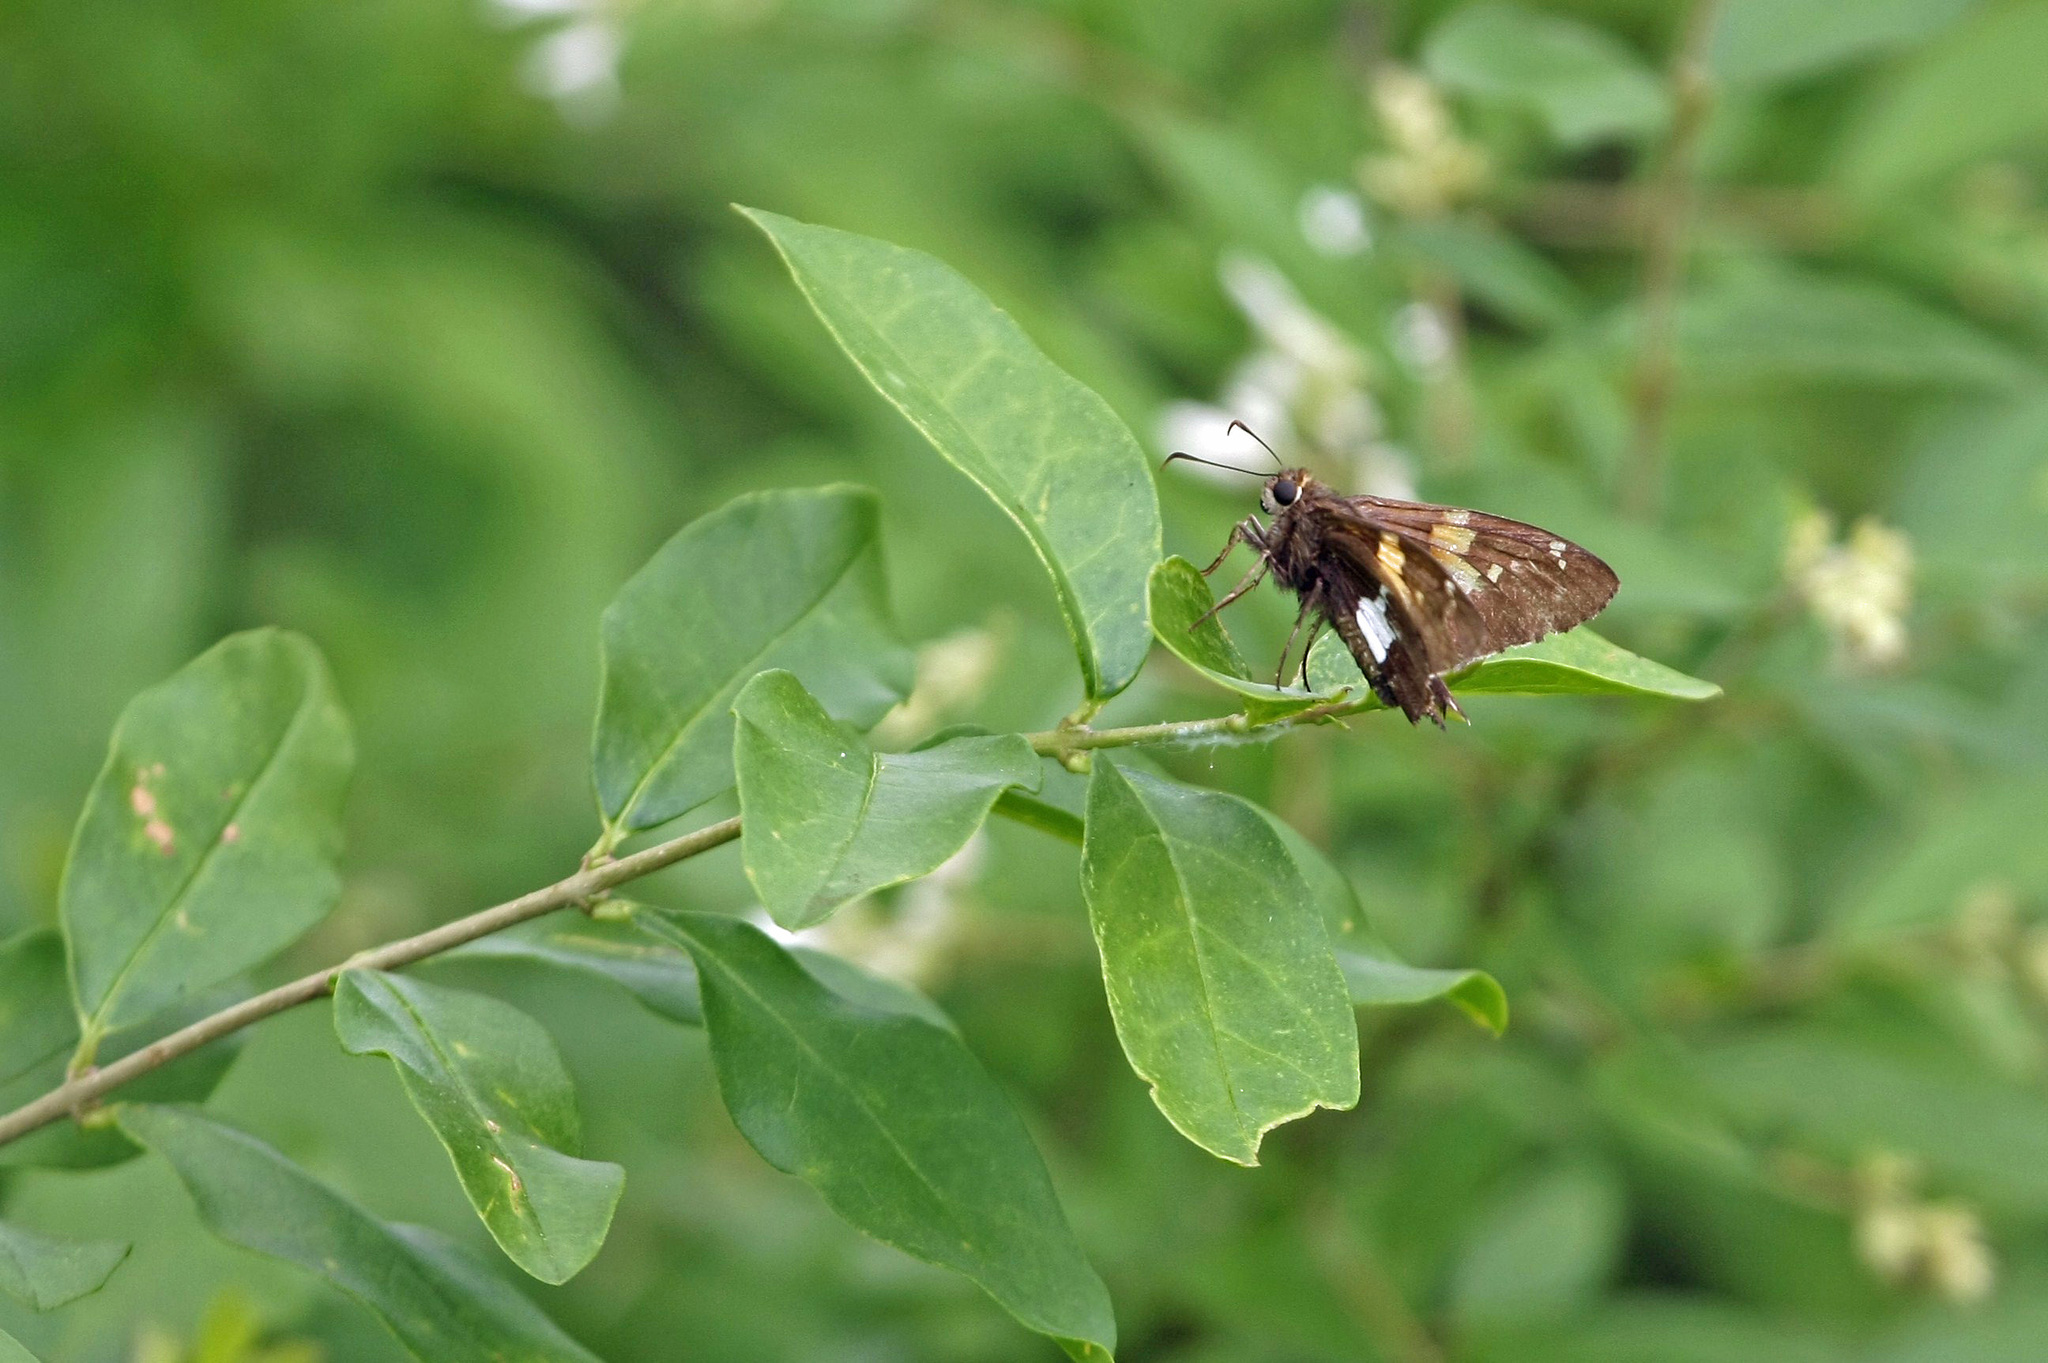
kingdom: Animalia
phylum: Arthropoda
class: Insecta
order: Lepidoptera
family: Hesperiidae
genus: Epargyreus
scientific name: Epargyreus clarus
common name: Silver-spotted skipper
